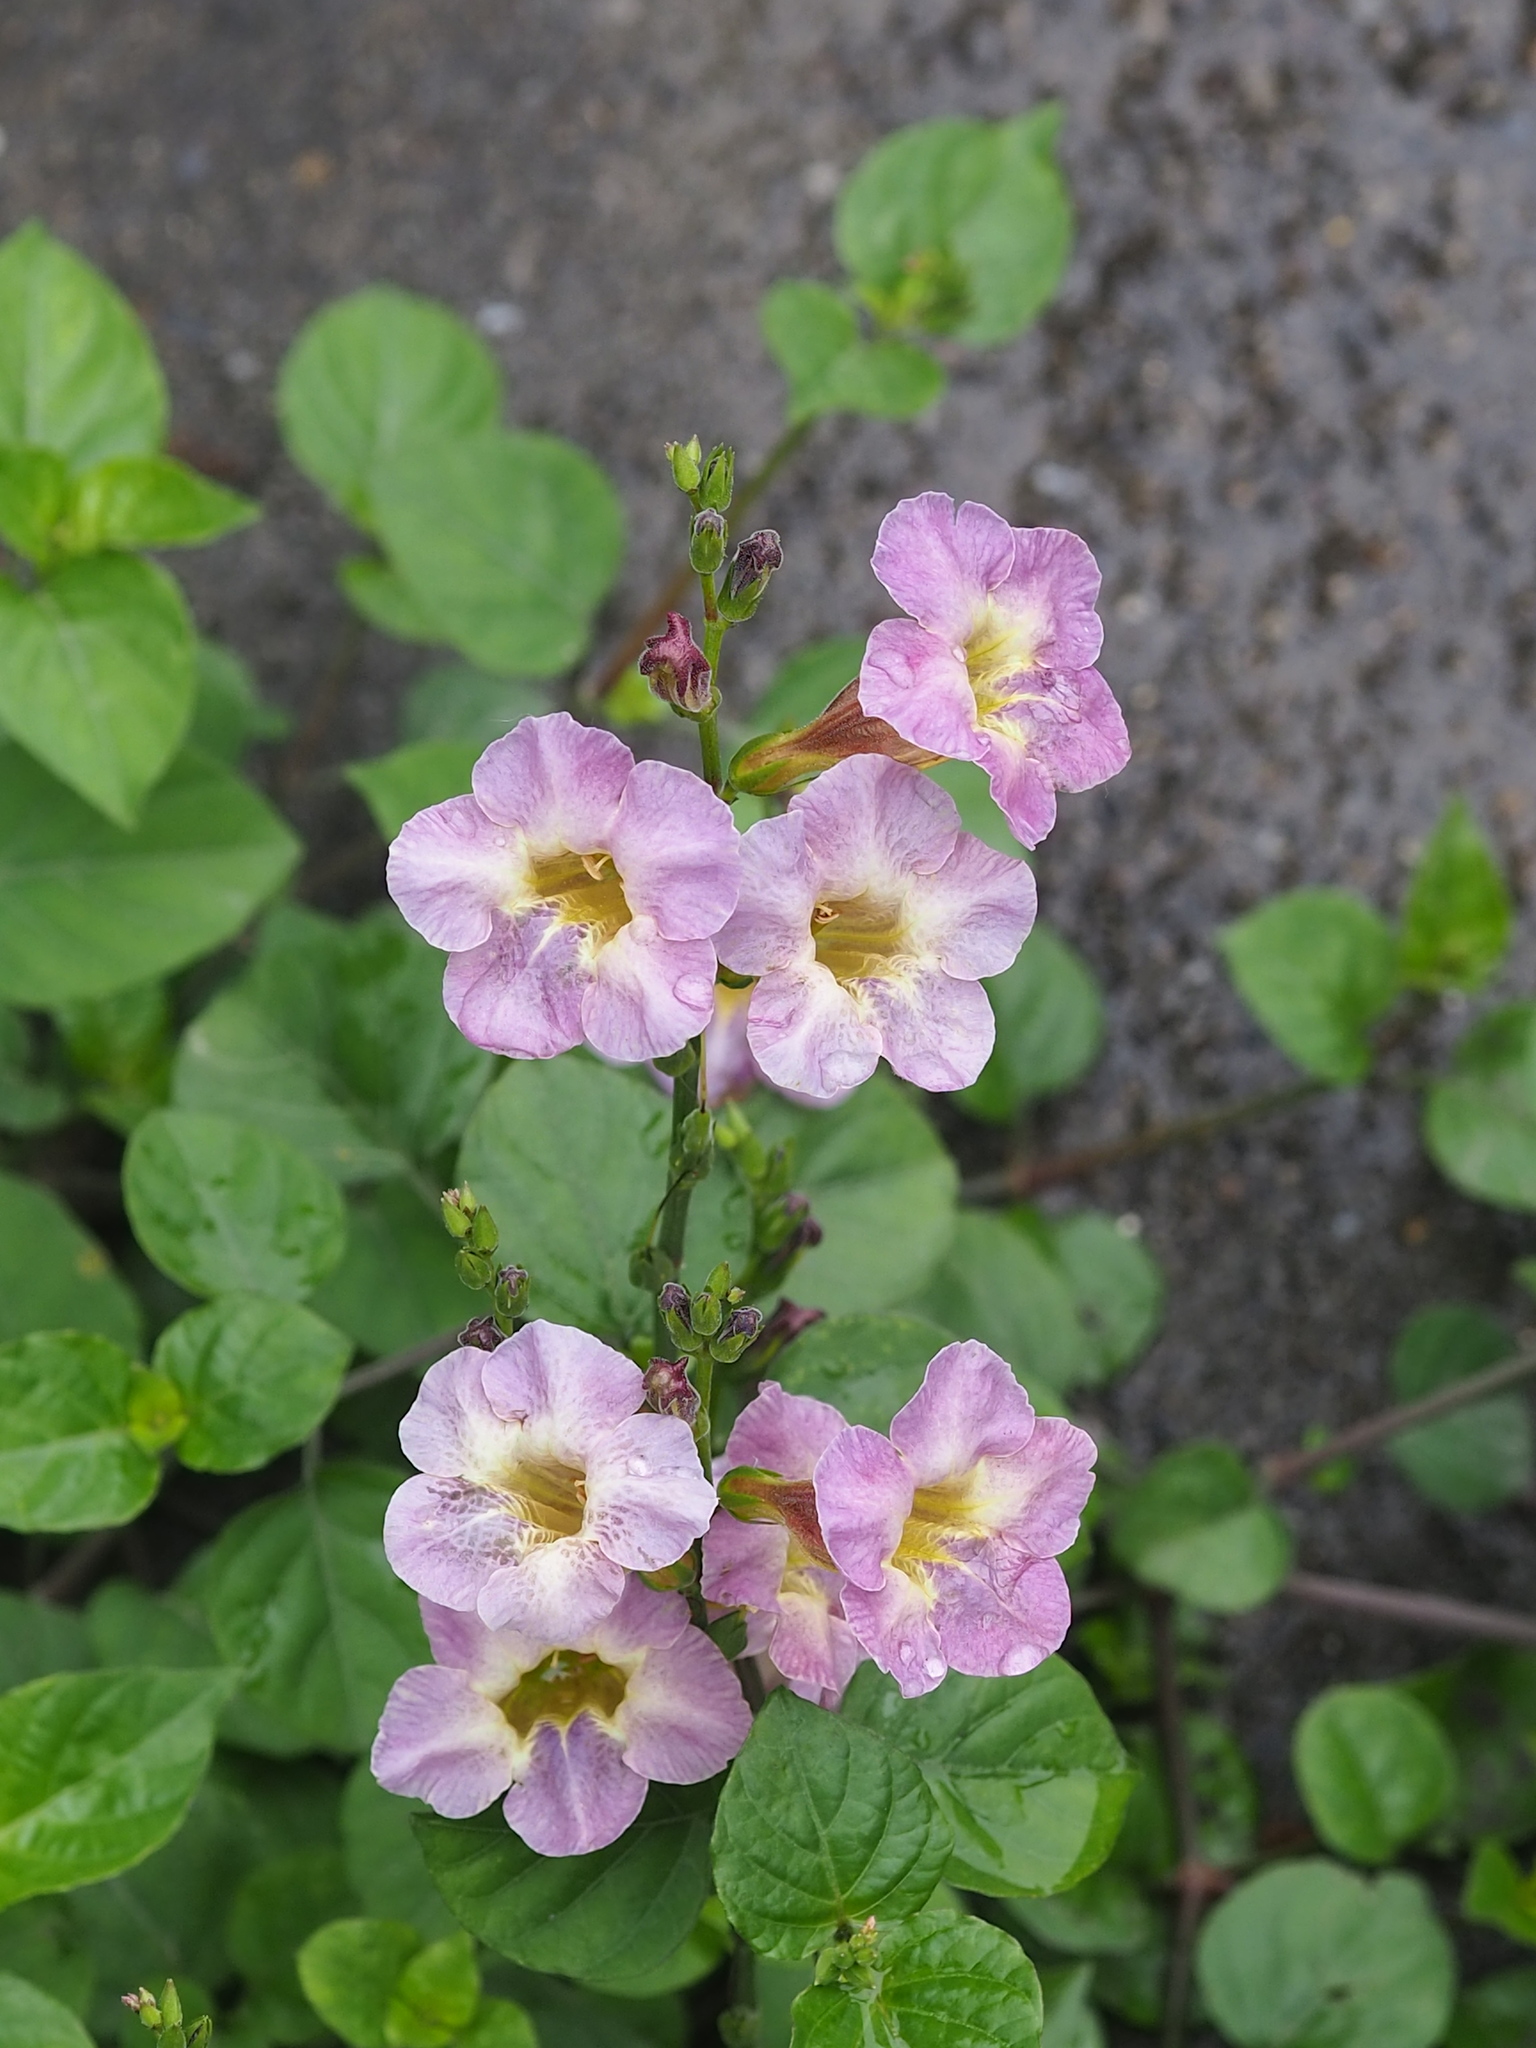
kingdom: Plantae
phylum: Tracheophyta
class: Magnoliopsida
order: Lamiales
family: Acanthaceae
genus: Asystasia
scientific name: Asystasia gangetica
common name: Chinese violet
